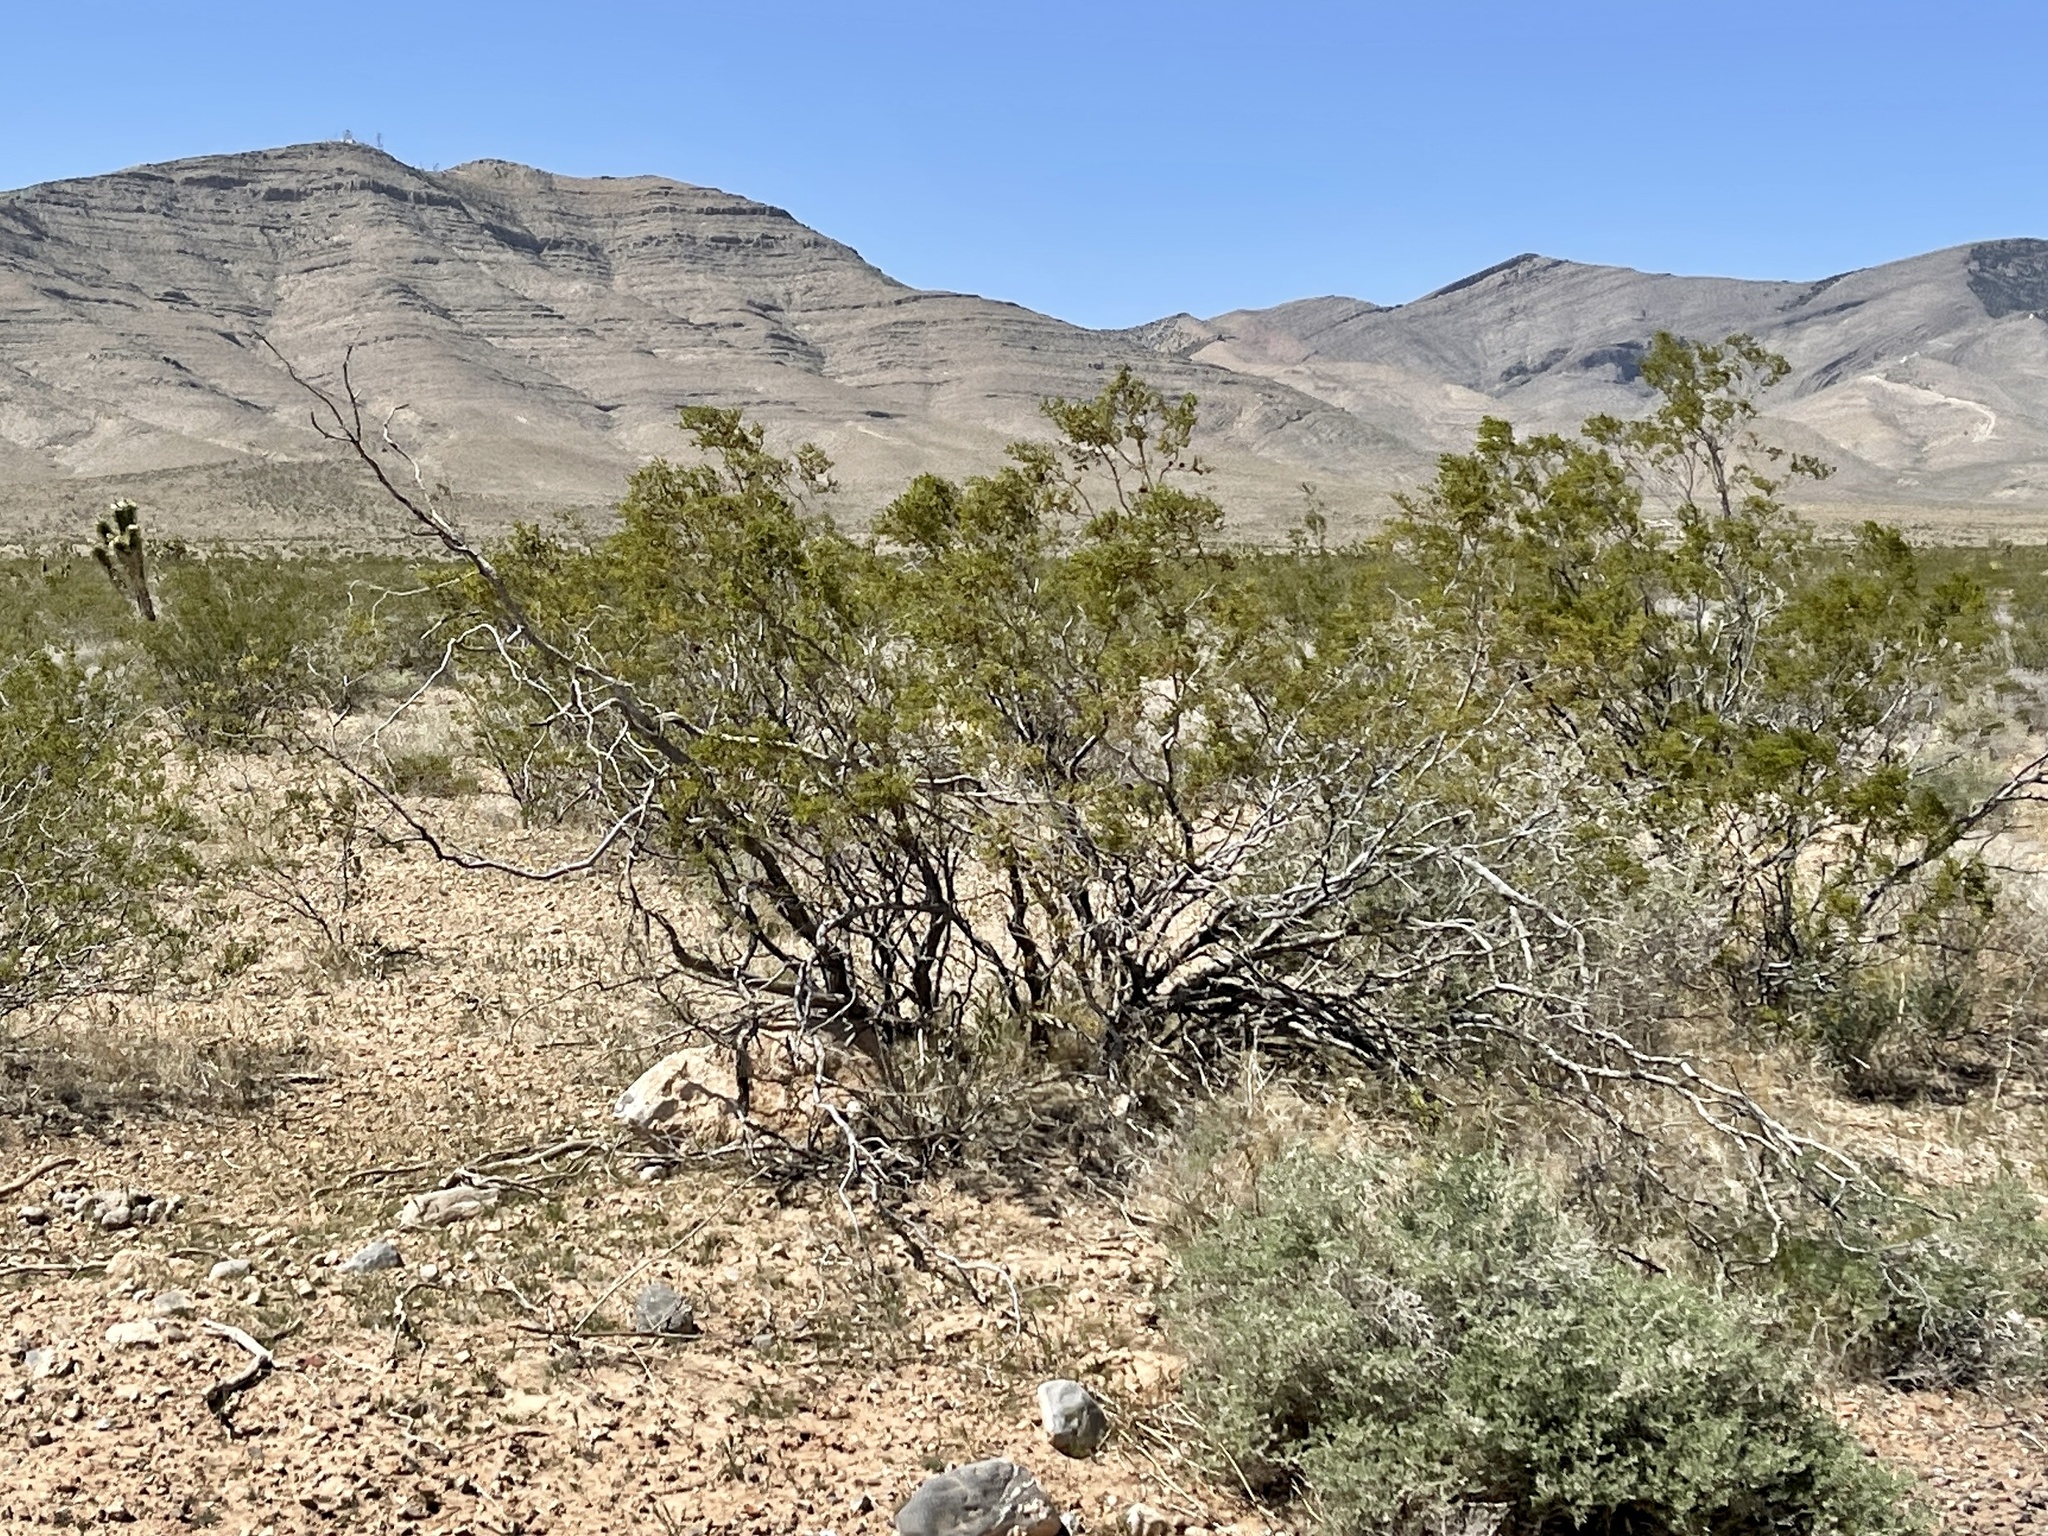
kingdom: Plantae
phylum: Tracheophyta
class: Magnoliopsida
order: Zygophyllales
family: Zygophyllaceae
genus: Larrea
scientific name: Larrea tridentata
